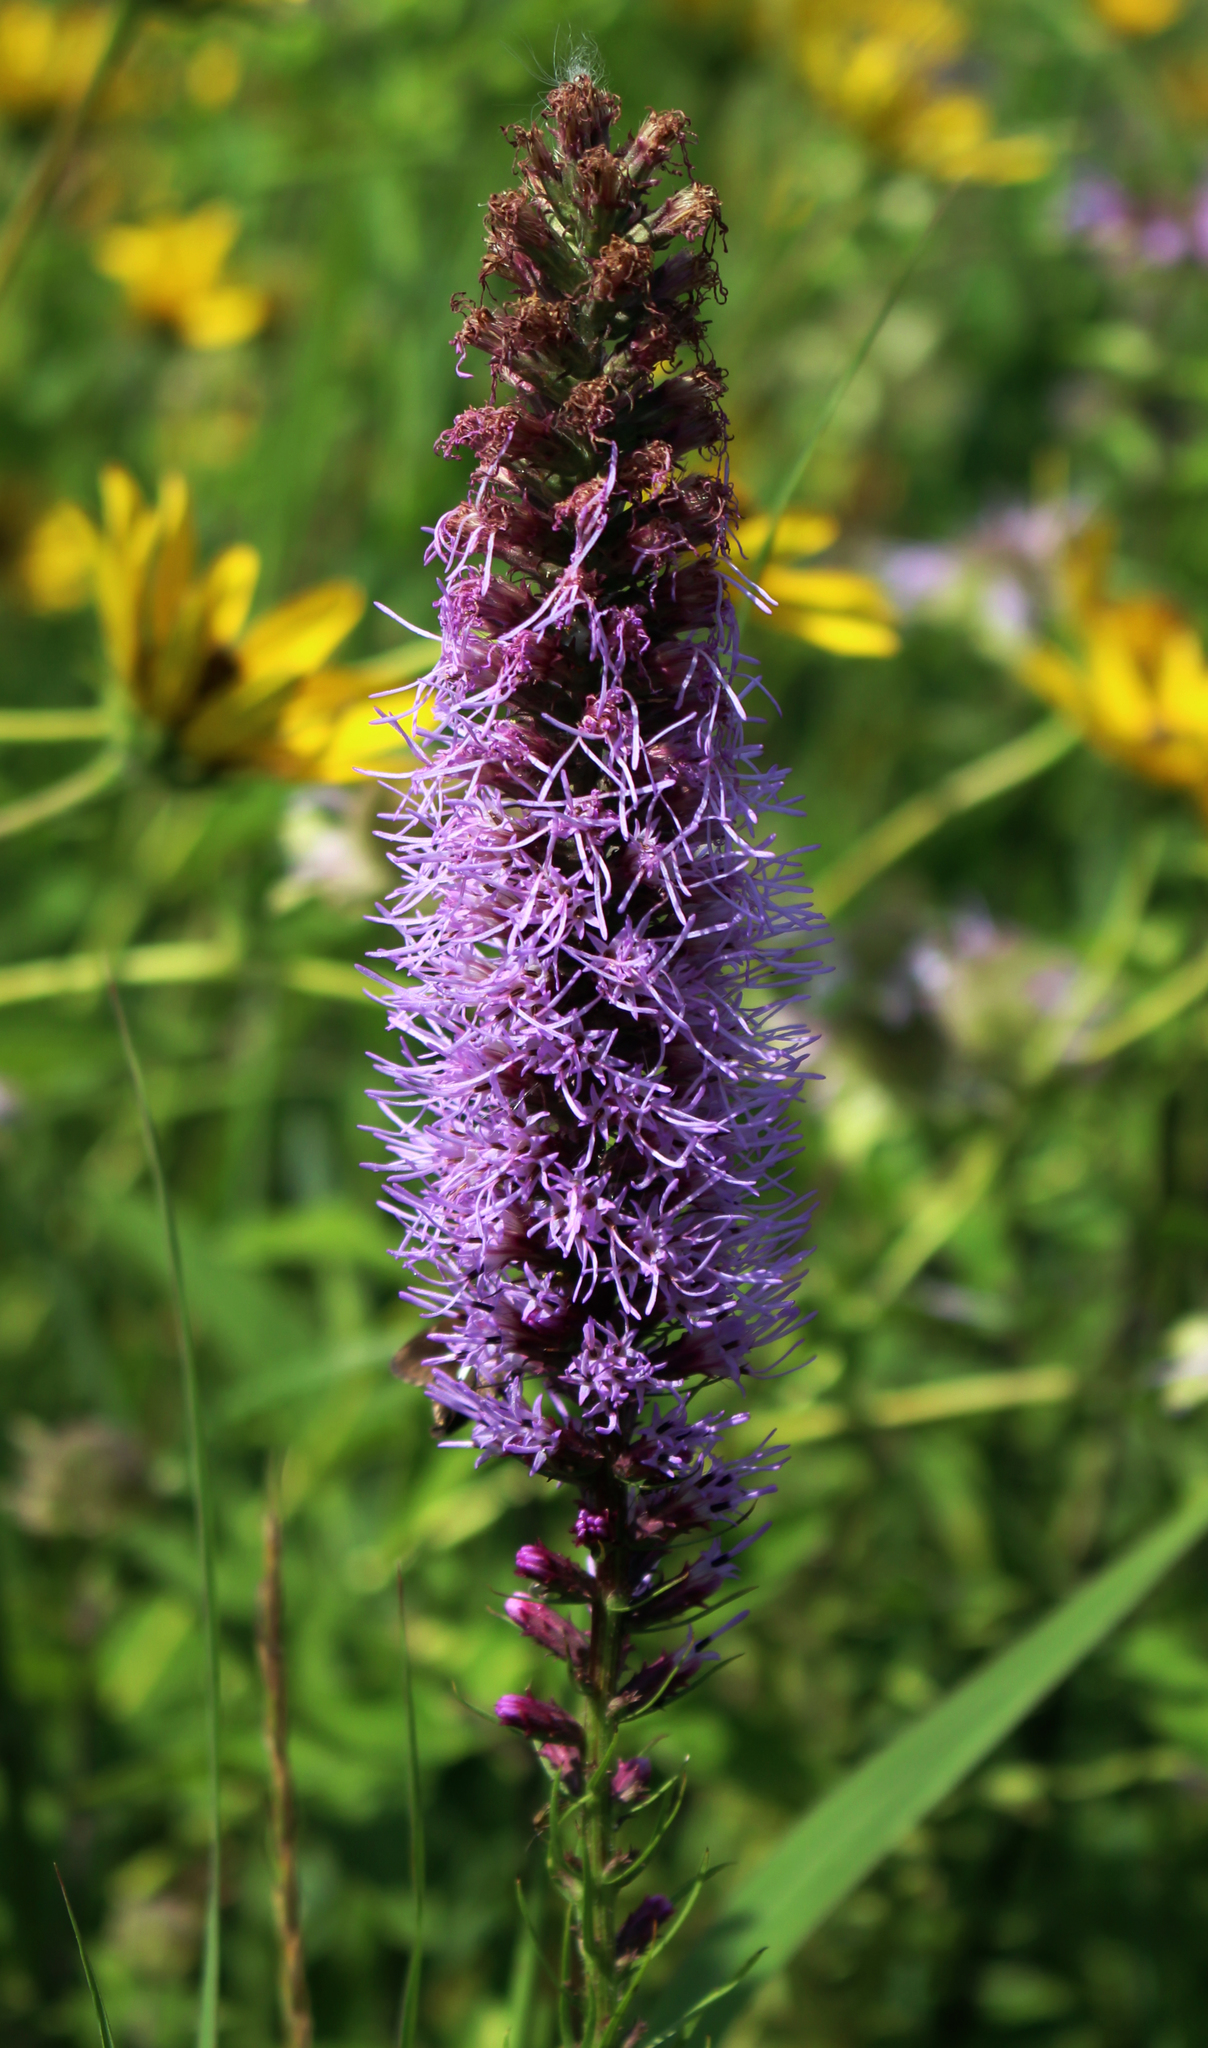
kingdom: Plantae
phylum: Tracheophyta
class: Magnoliopsida
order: Asterales
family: Asteraceae
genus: Liatris
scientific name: Liatris pycnostachya
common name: Cattail gayfeather
